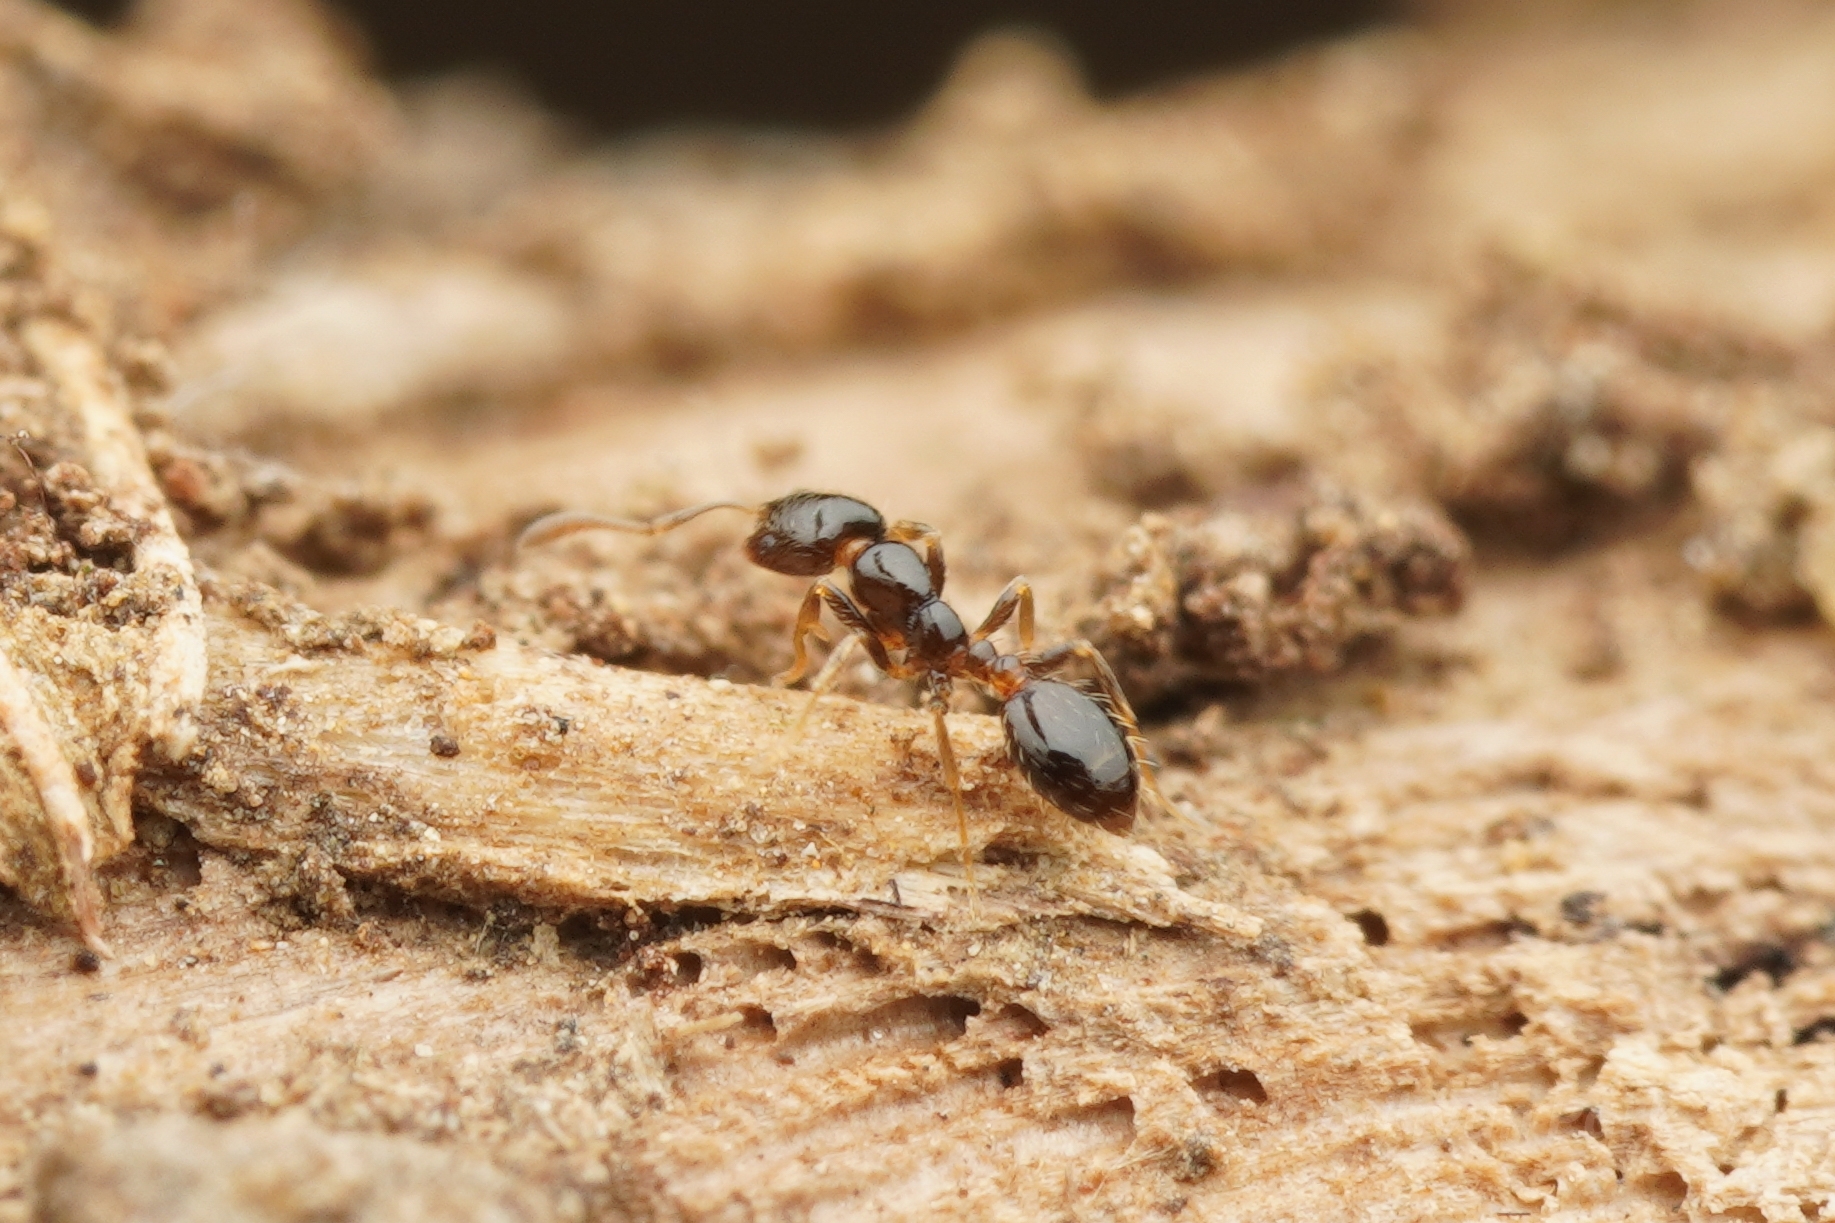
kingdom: Animalia
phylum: Arthropoda
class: Insecta
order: Hymenoptera
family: Formicidae
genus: Monomorium
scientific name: Monomorium chinense
